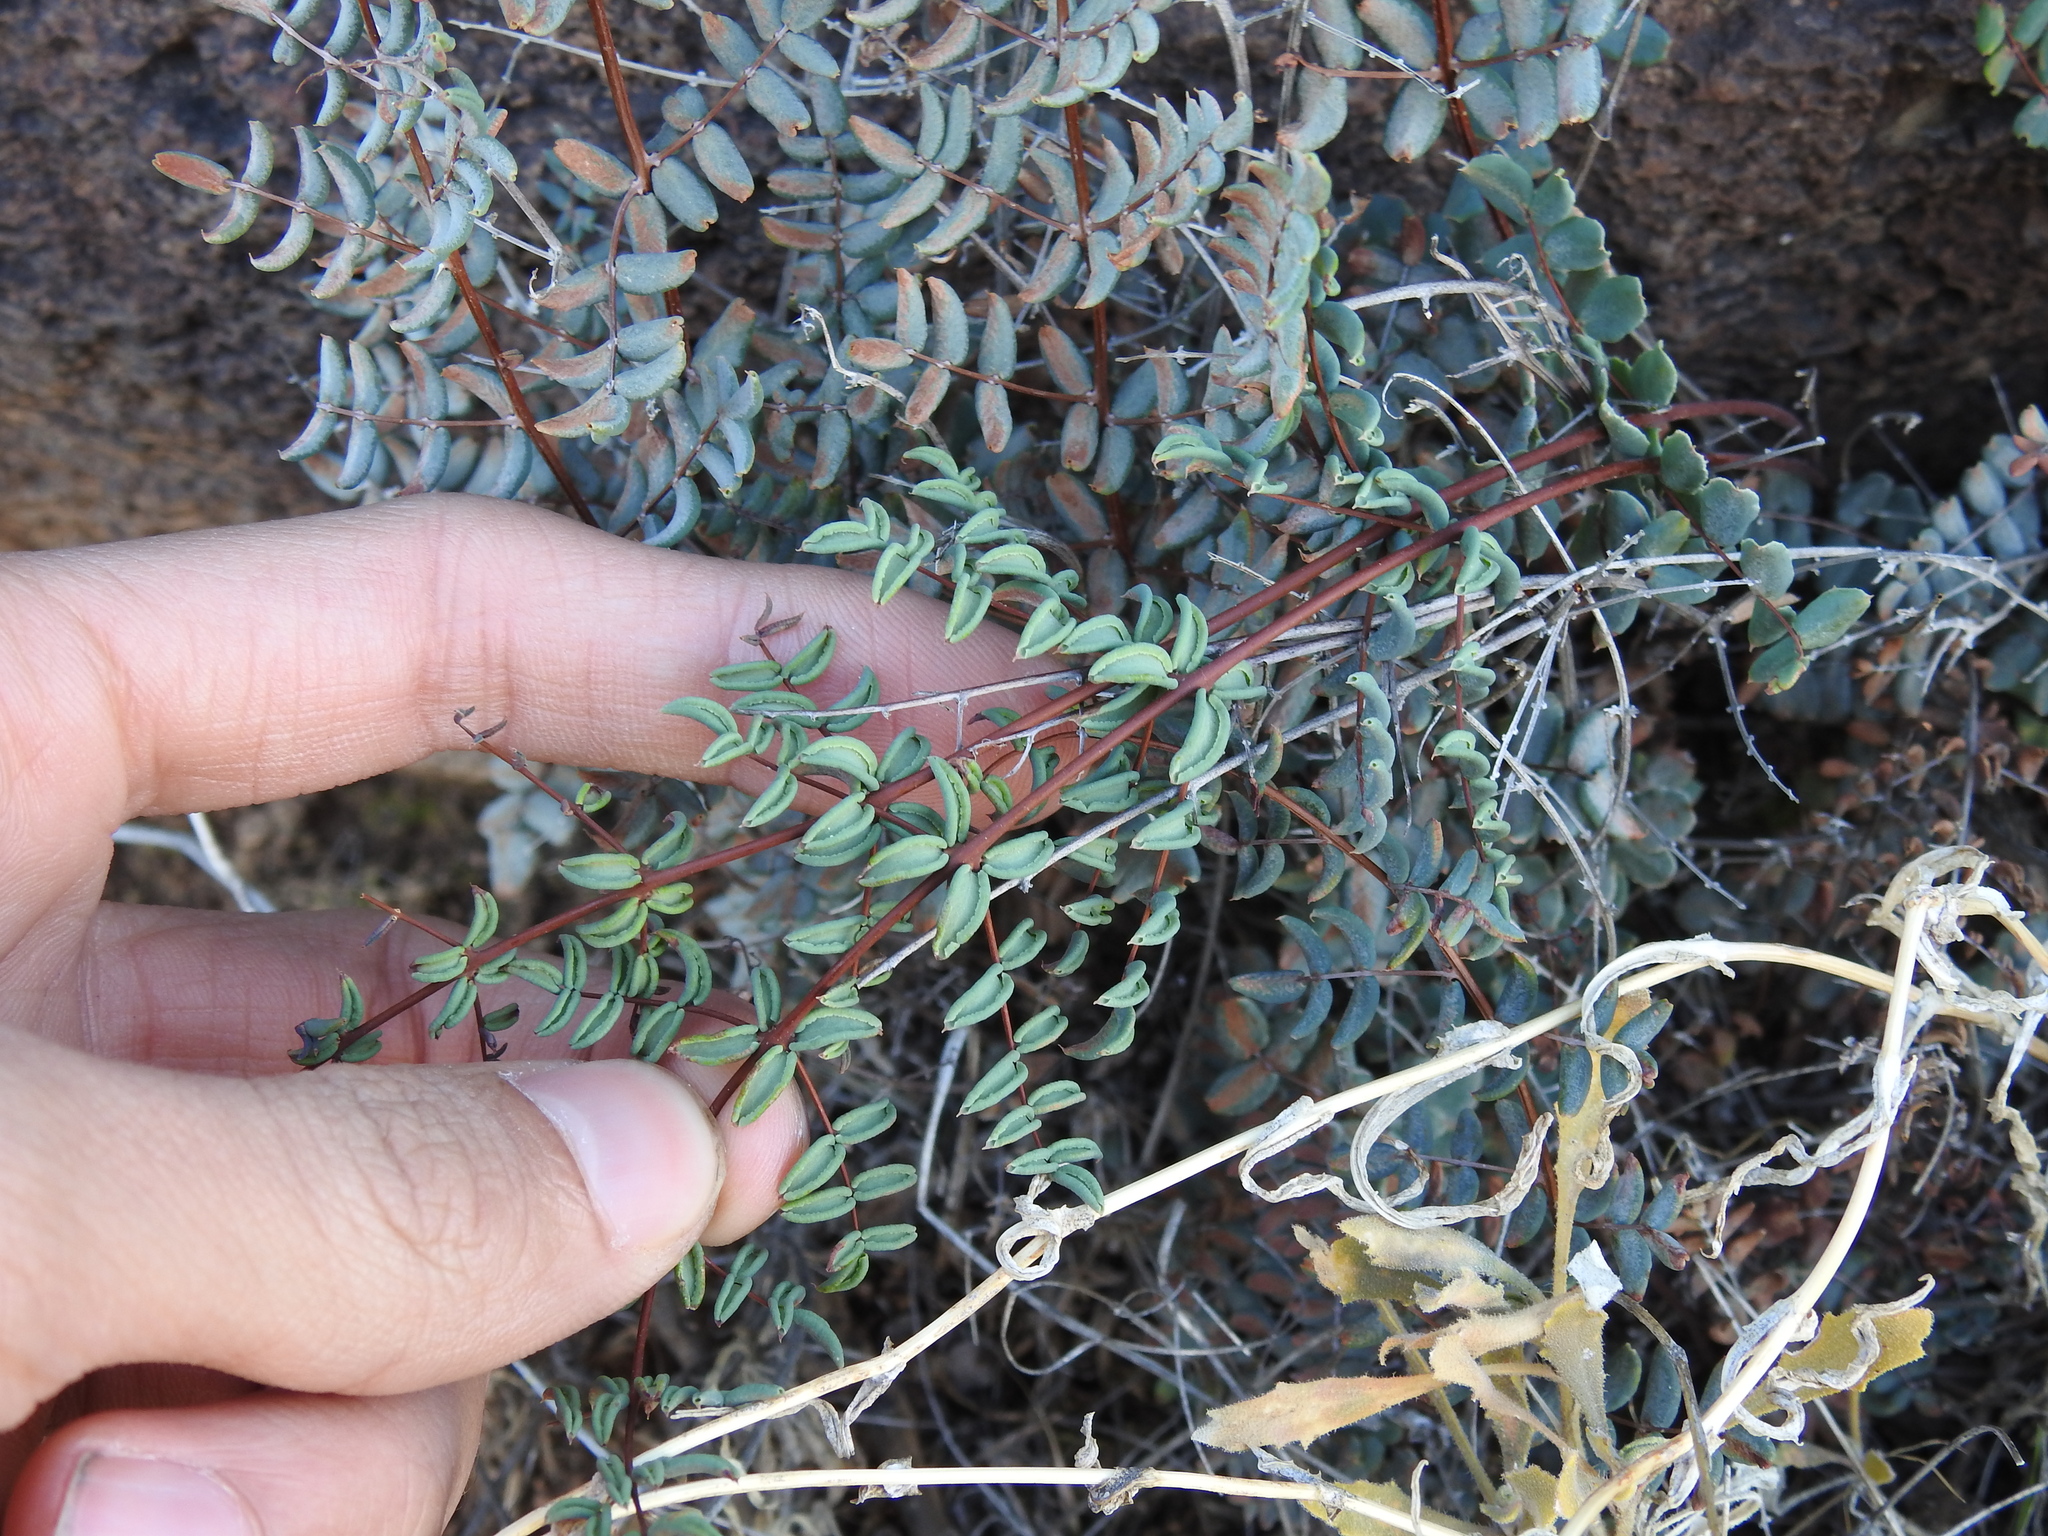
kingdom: Plantae
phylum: Tracheophyta
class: Polypodiopsida
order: Polypodiales
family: Pteridaceae
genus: Pellaea
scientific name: Pellaea truncata
